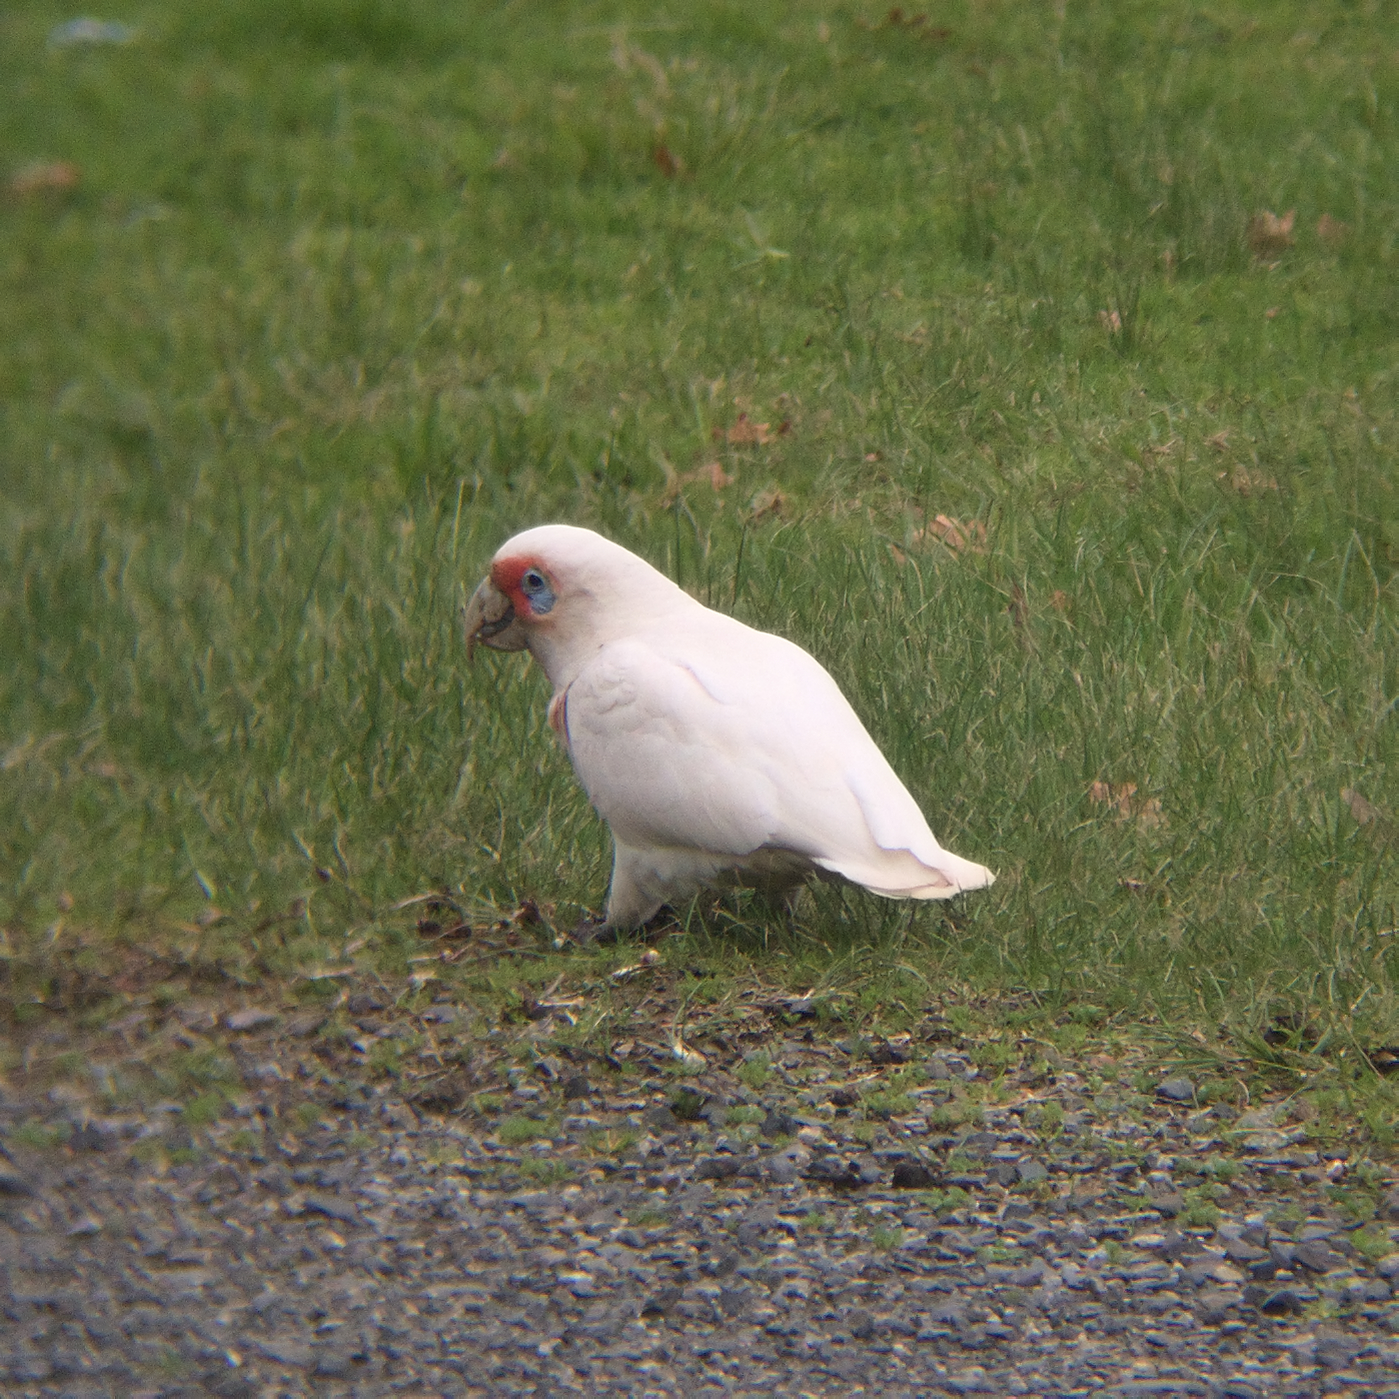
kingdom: Animalia
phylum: Chordata
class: Aves
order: Psittaciformes
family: Psittacidae
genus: Cacatua
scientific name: Cacatua tenuirostris
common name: Long-billed corella
